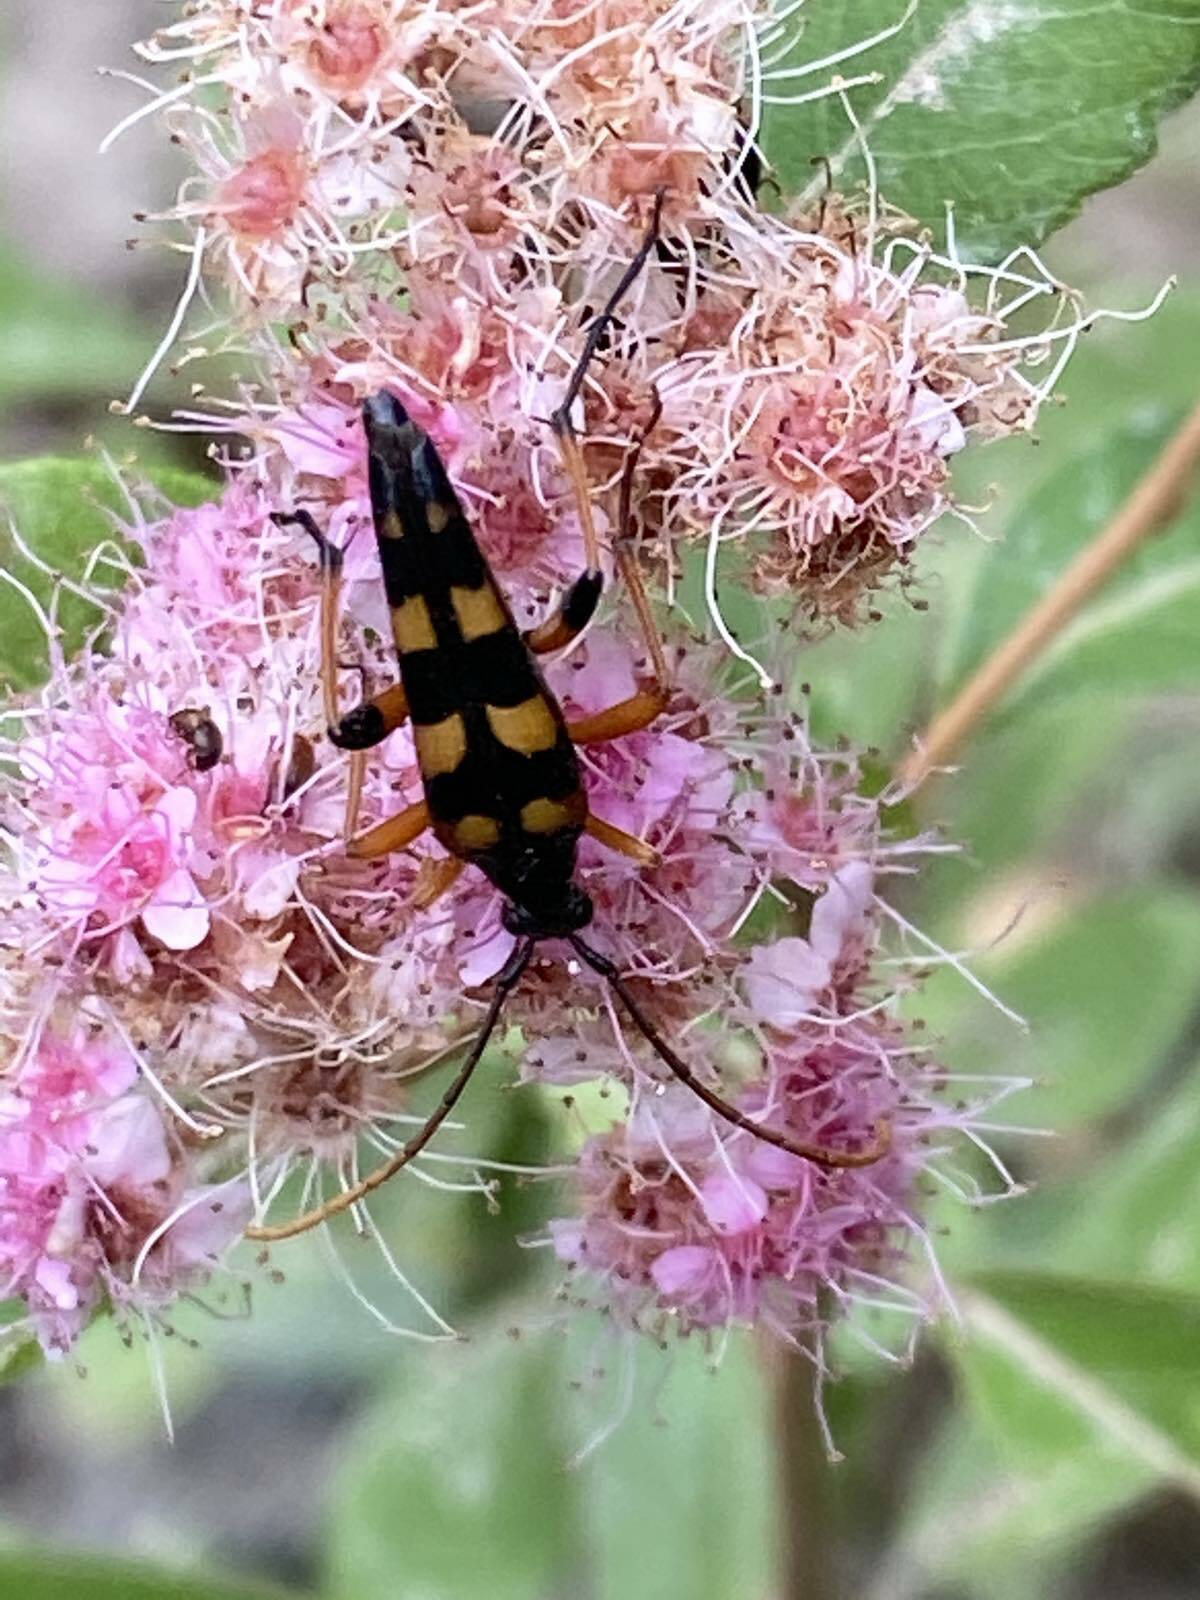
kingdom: Animalia
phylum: Arthropoda
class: Insecta
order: Coleoptera
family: Cerambycidae
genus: Strangalia
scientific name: Strangalia attenuata
